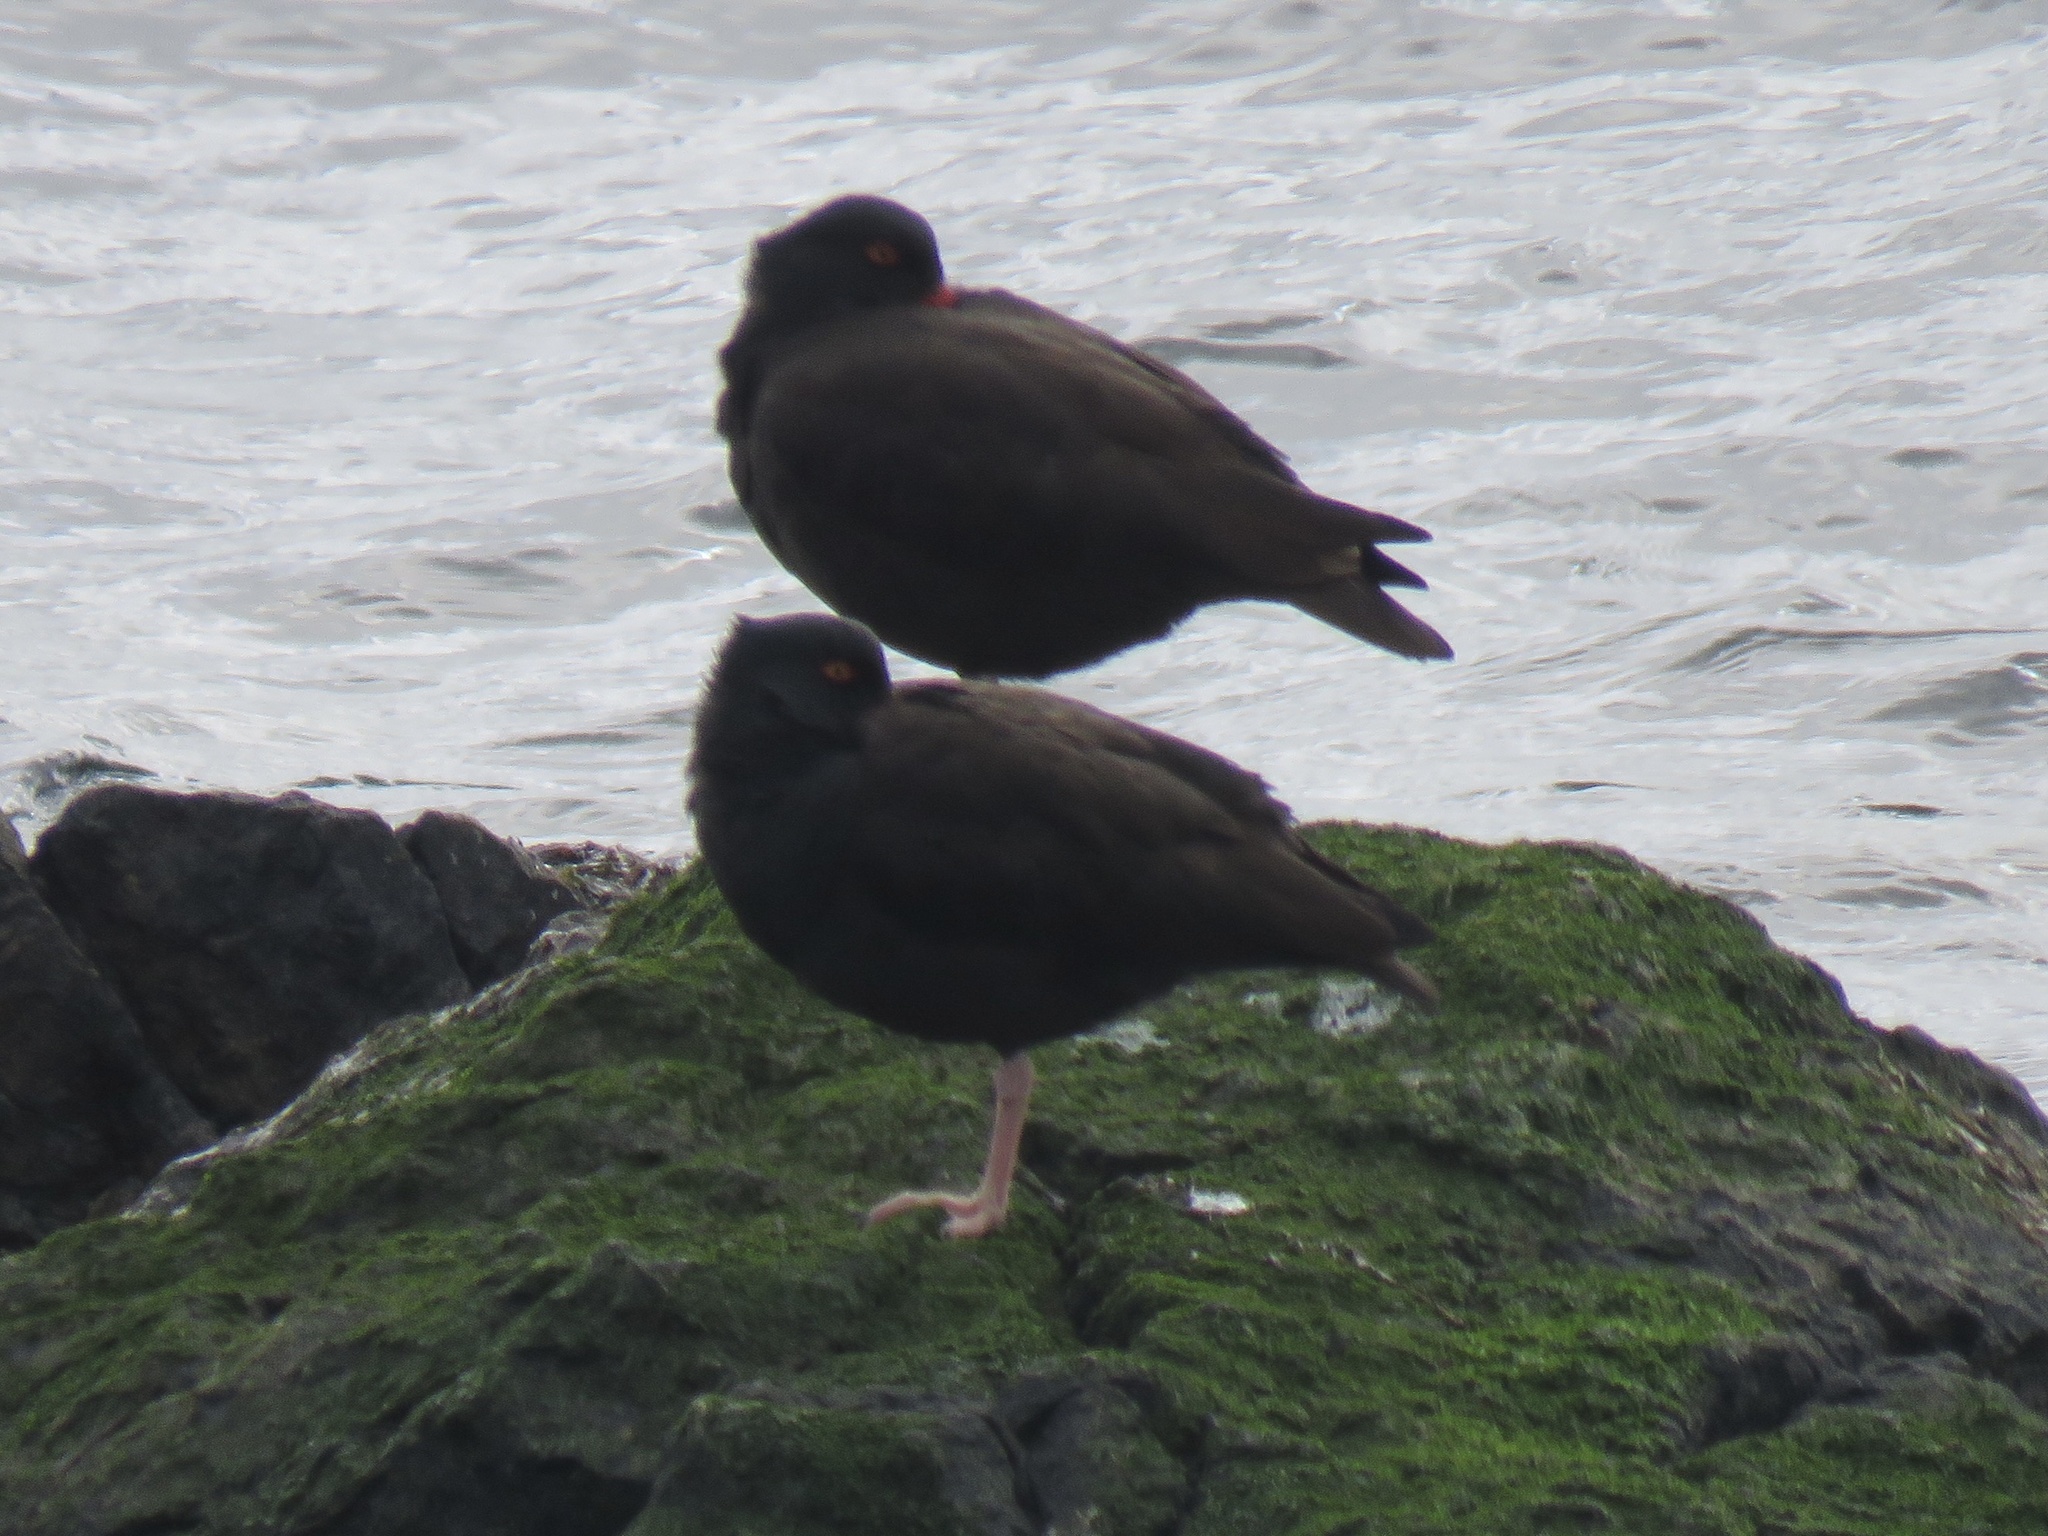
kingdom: Animalia
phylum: Chordata
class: Aves
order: Charadriiformes
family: Haematopodidae
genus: Haematopus
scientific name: Haematopus bachmani
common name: Black oystercatcher
